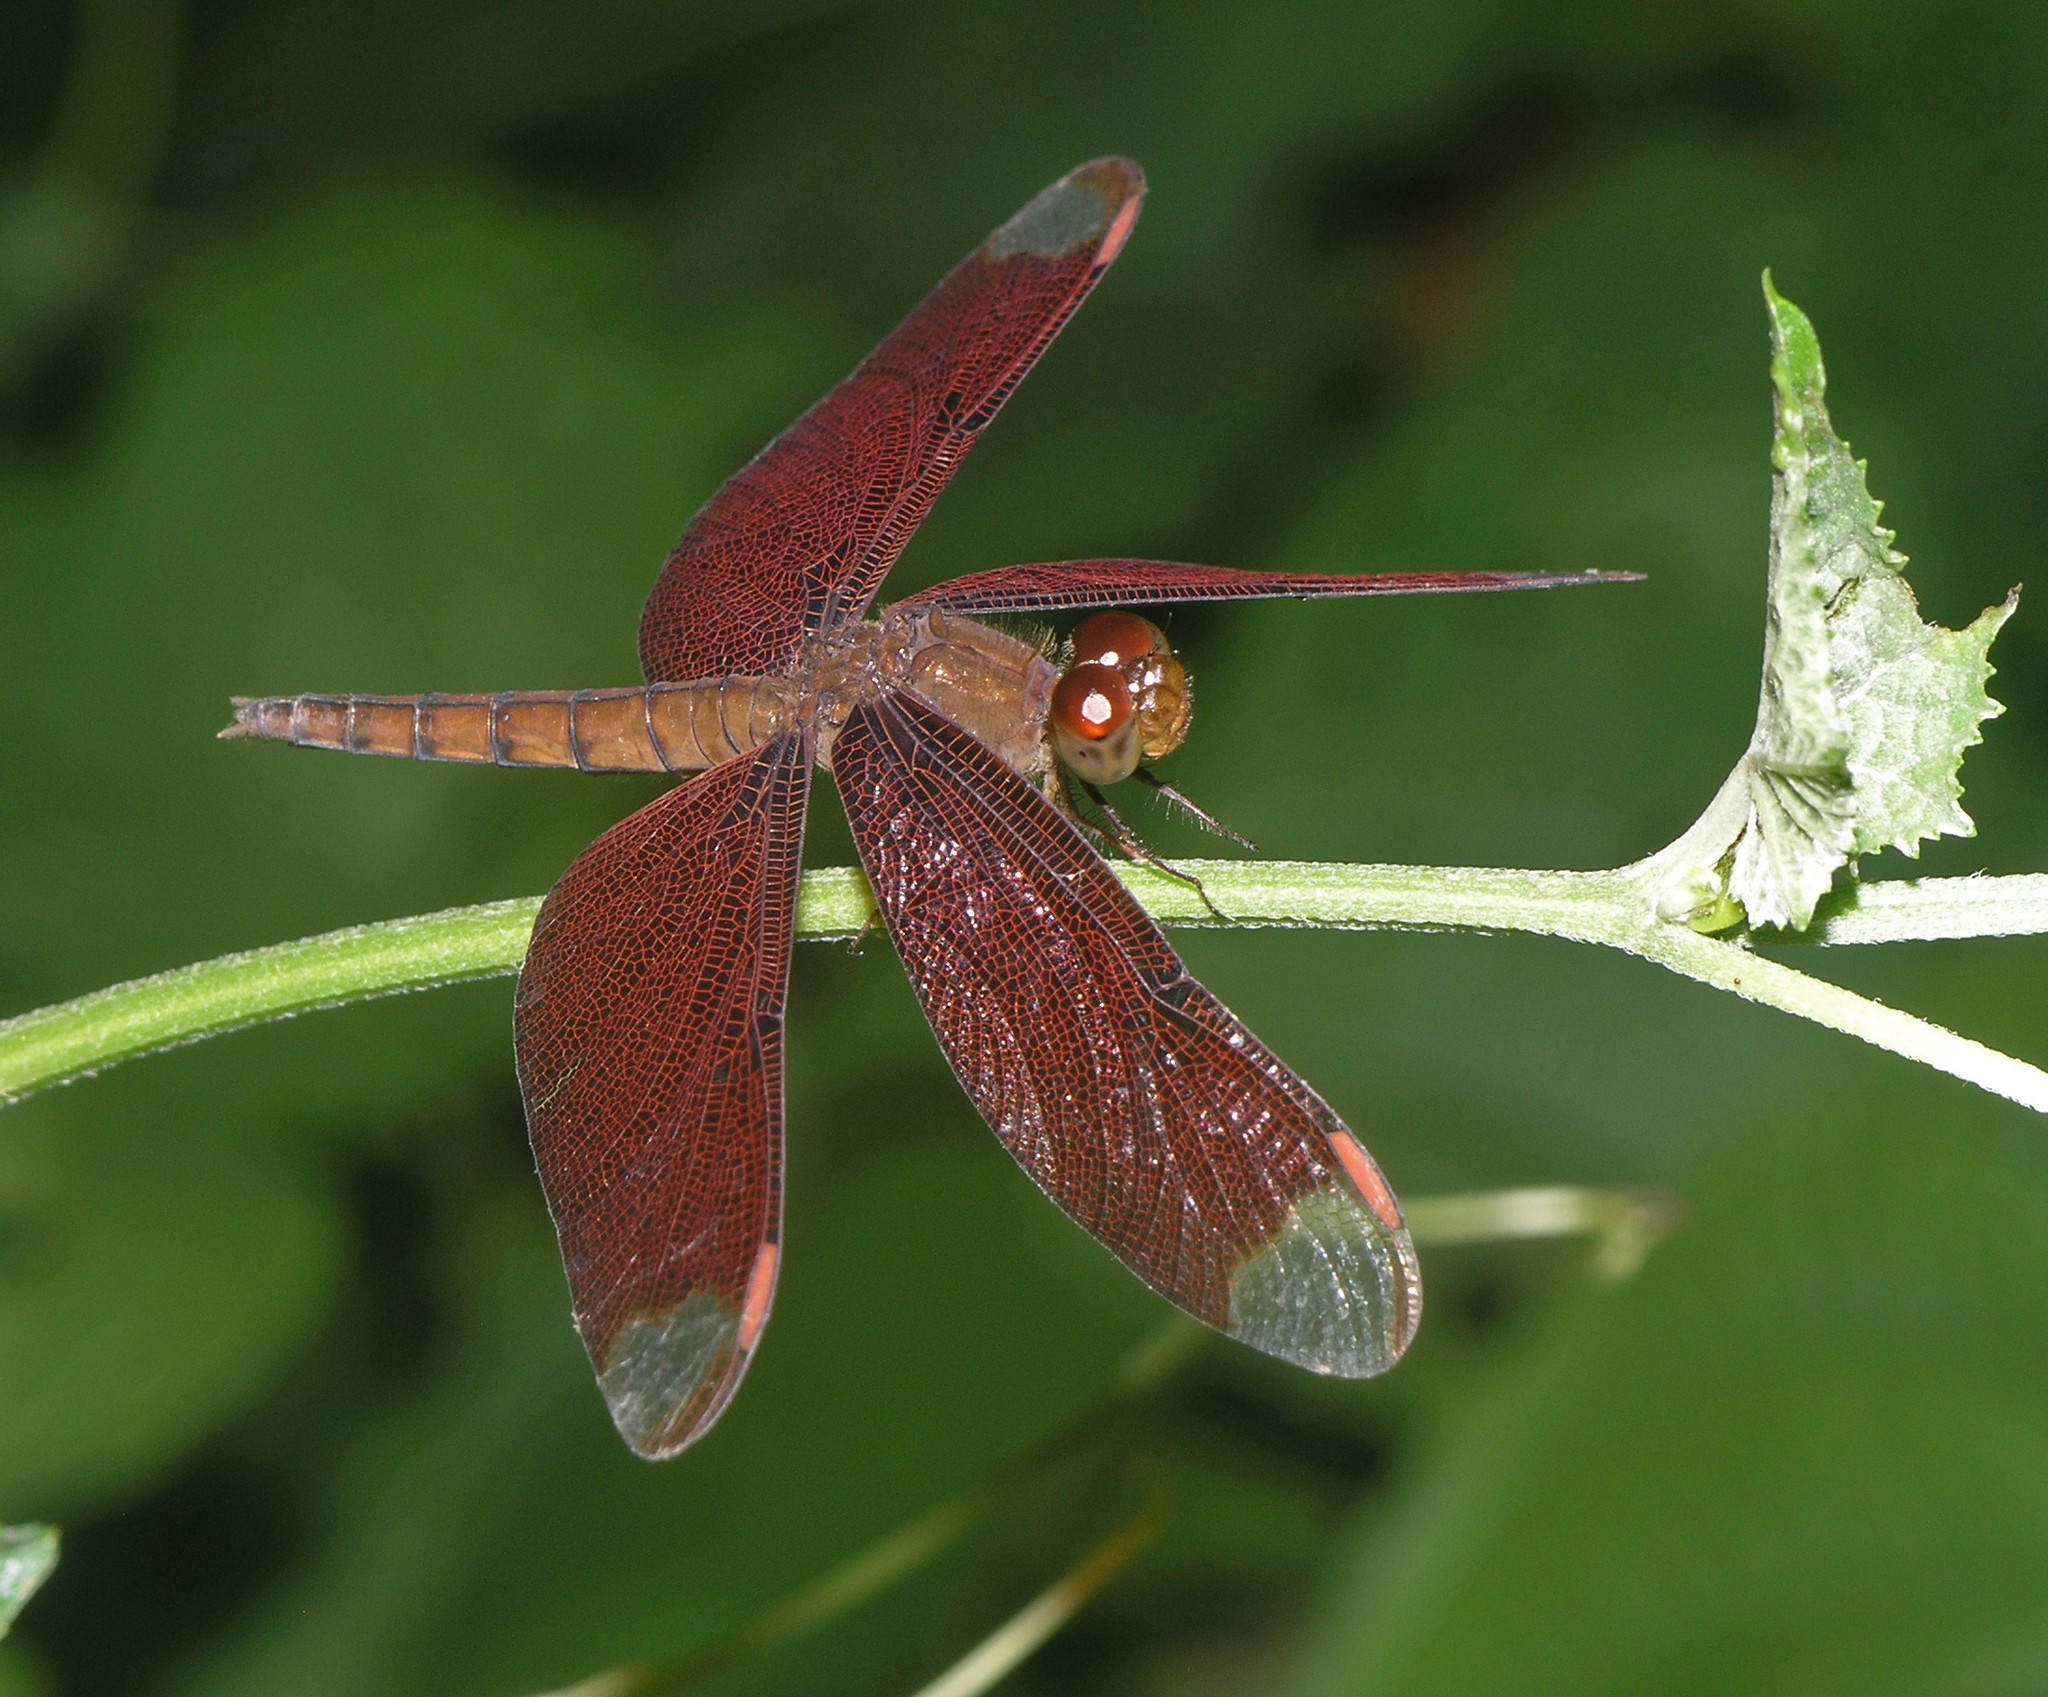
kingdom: Animalia
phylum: Arthropoda
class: Insecta
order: Odonata
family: Libellulidae
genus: Neurothemis
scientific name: Neurothemis fulvia
